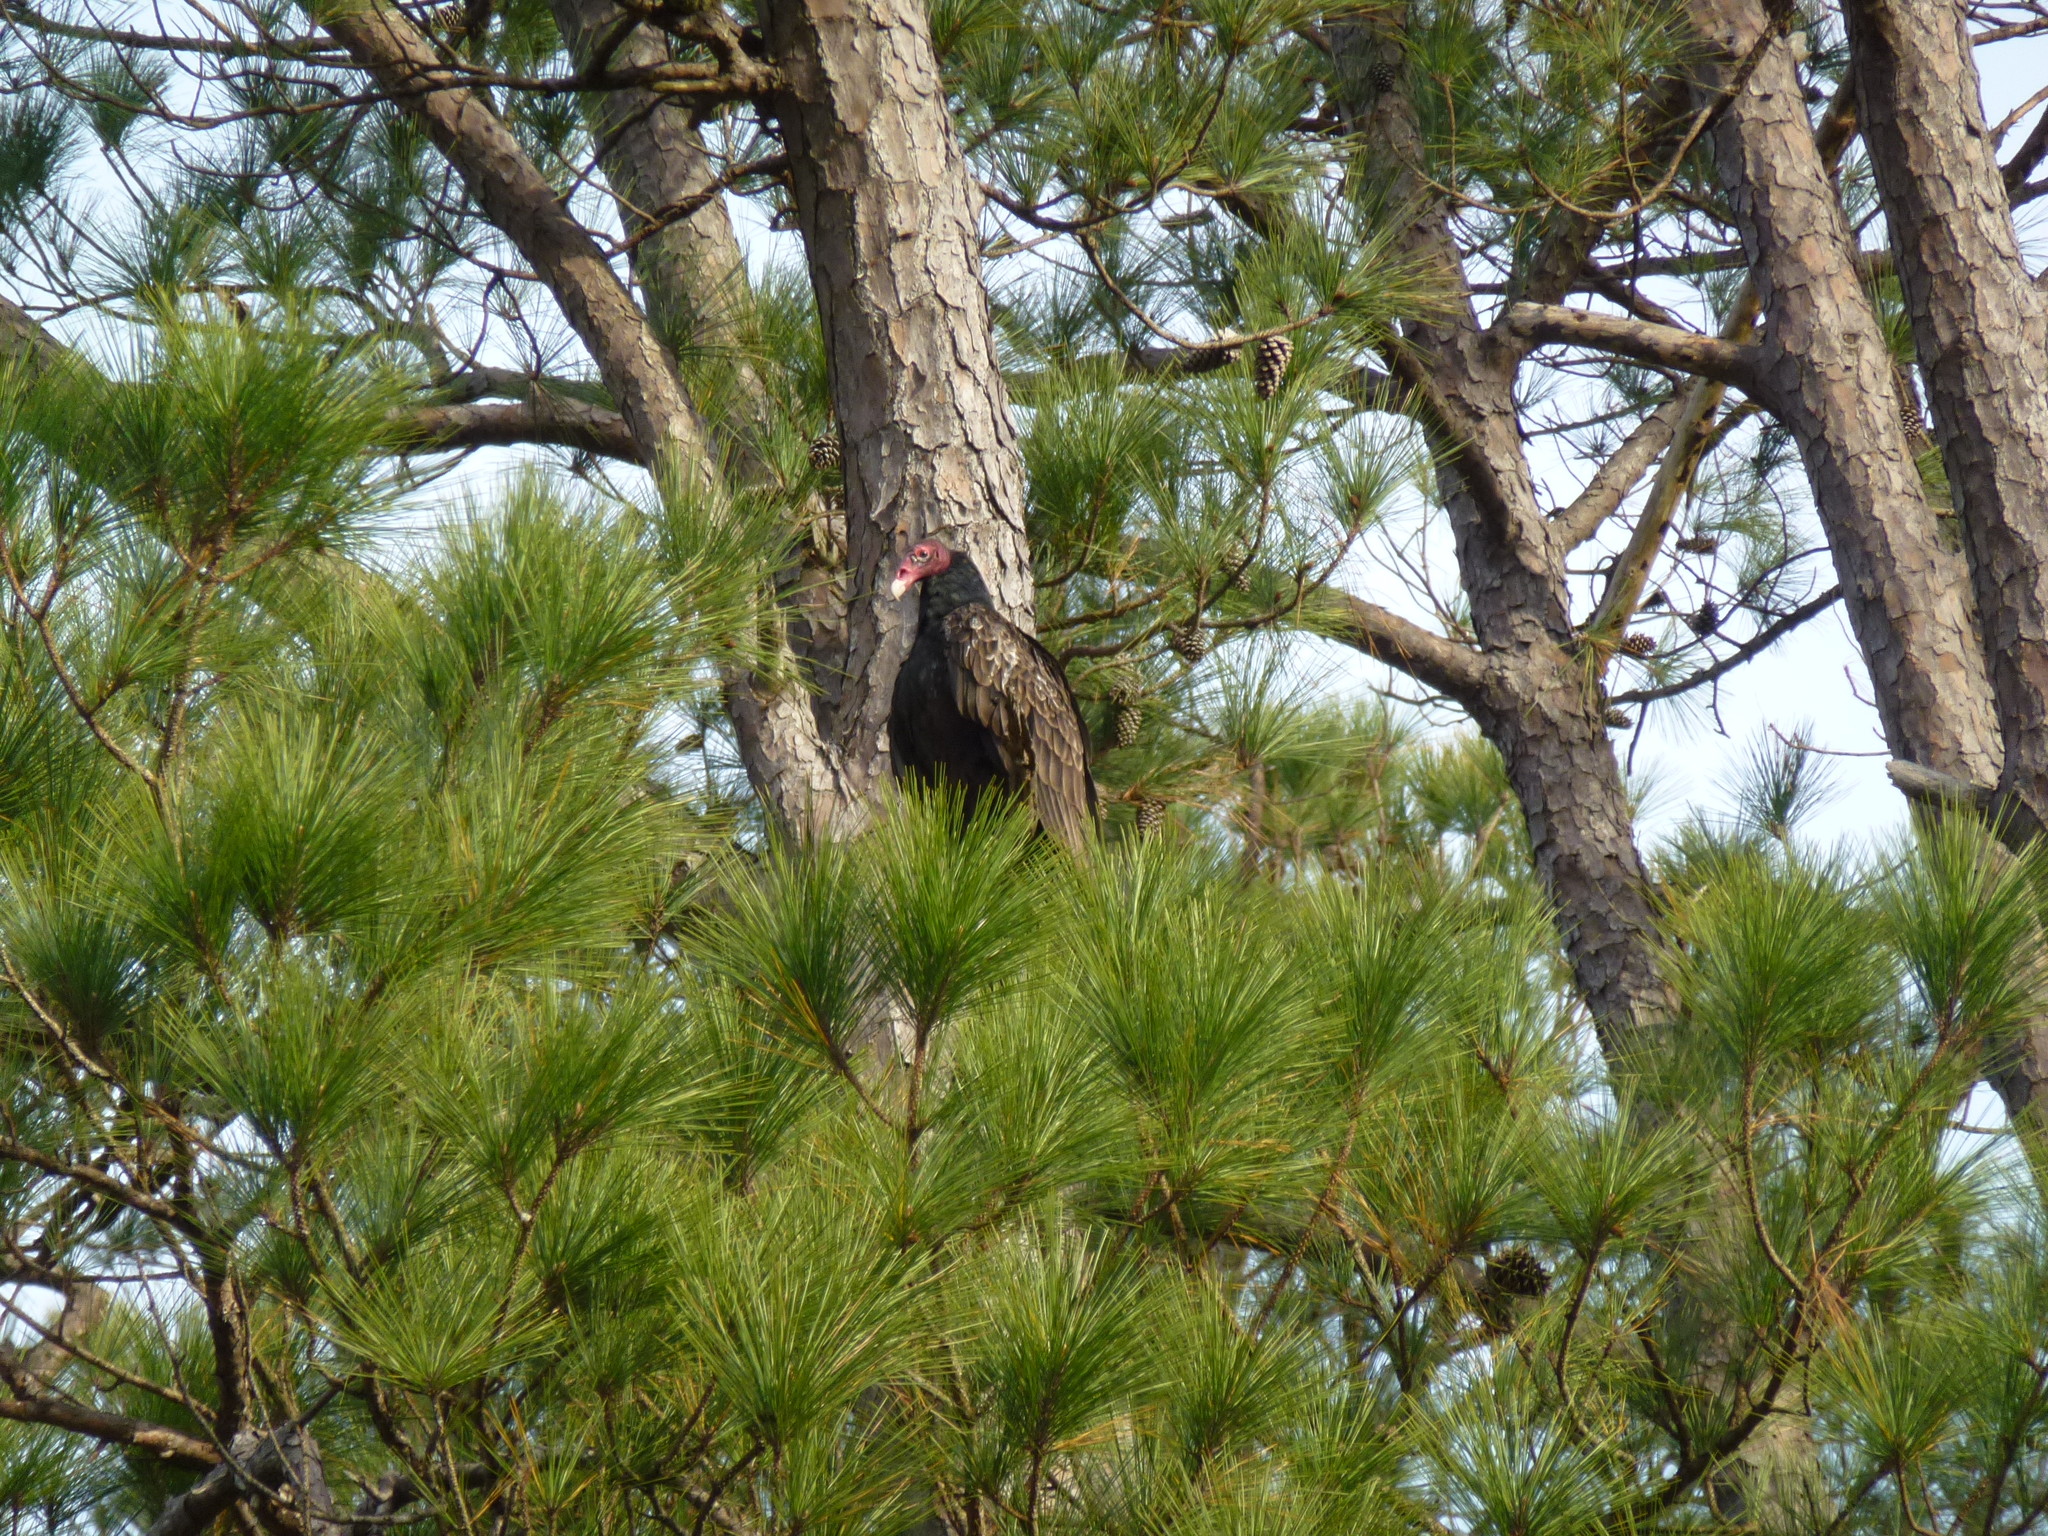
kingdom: Animalia
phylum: Chordata
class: Aves
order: Accipitriformes
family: Cathartidae
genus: Cathartes
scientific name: Cathartes aura
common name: Turkey vulture
